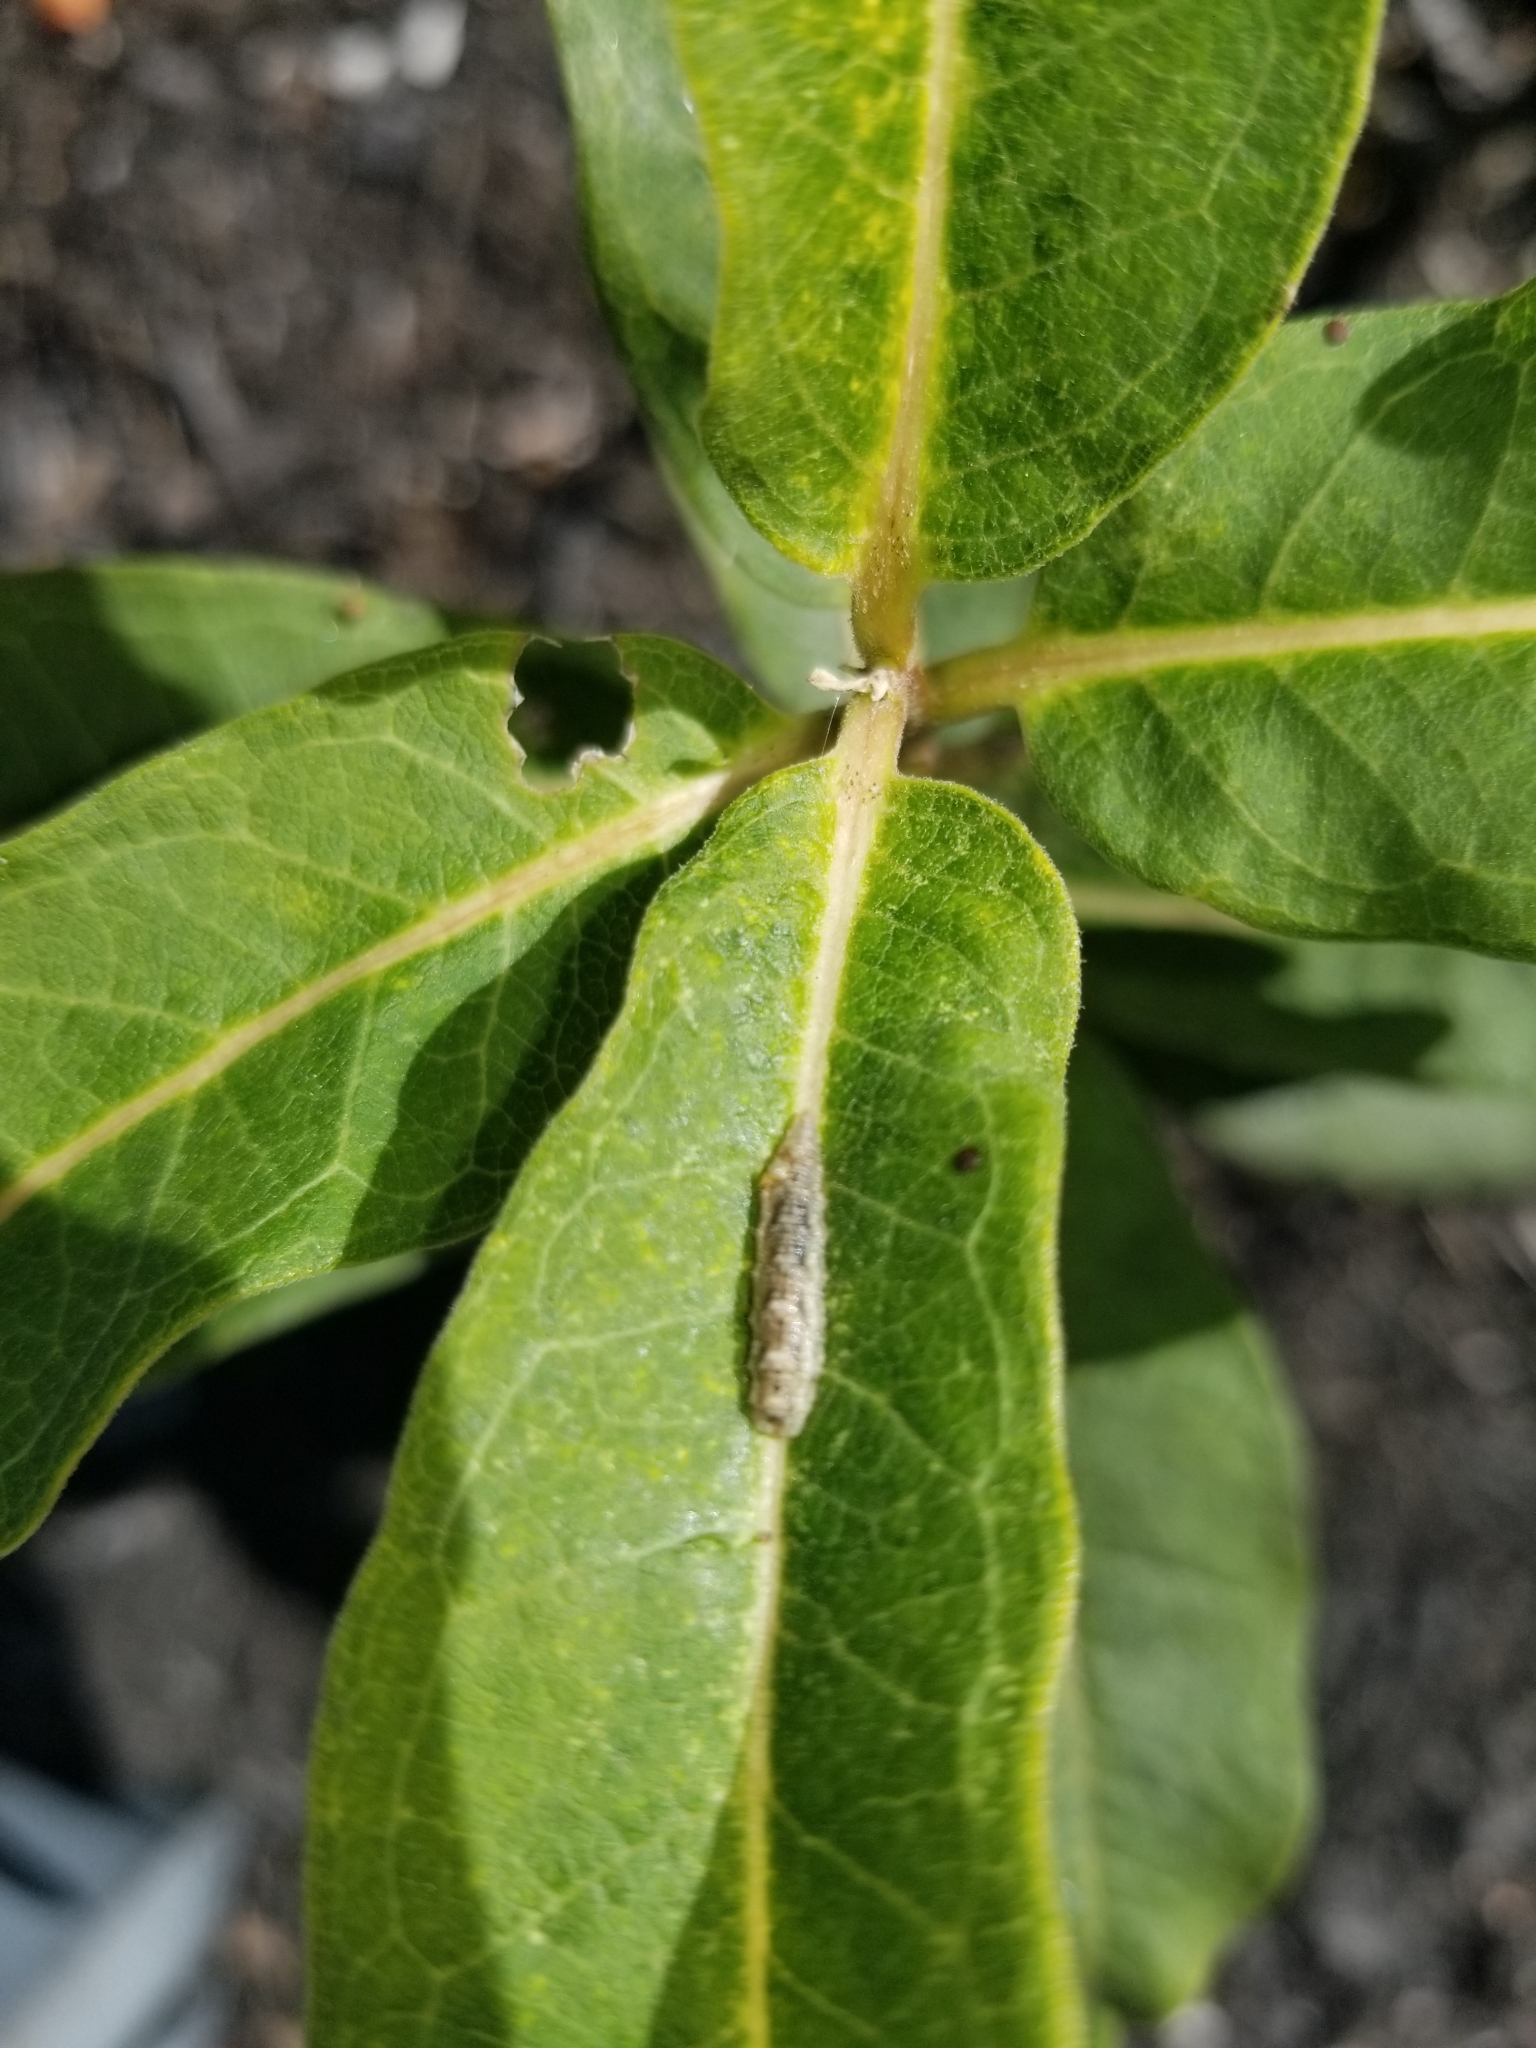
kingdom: Plantae
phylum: Tracheophyta
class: Magnoliopsida
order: Gentianales
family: Apocynaceae
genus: Asclepias
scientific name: Asclepias syriaca
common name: Common milkweed
